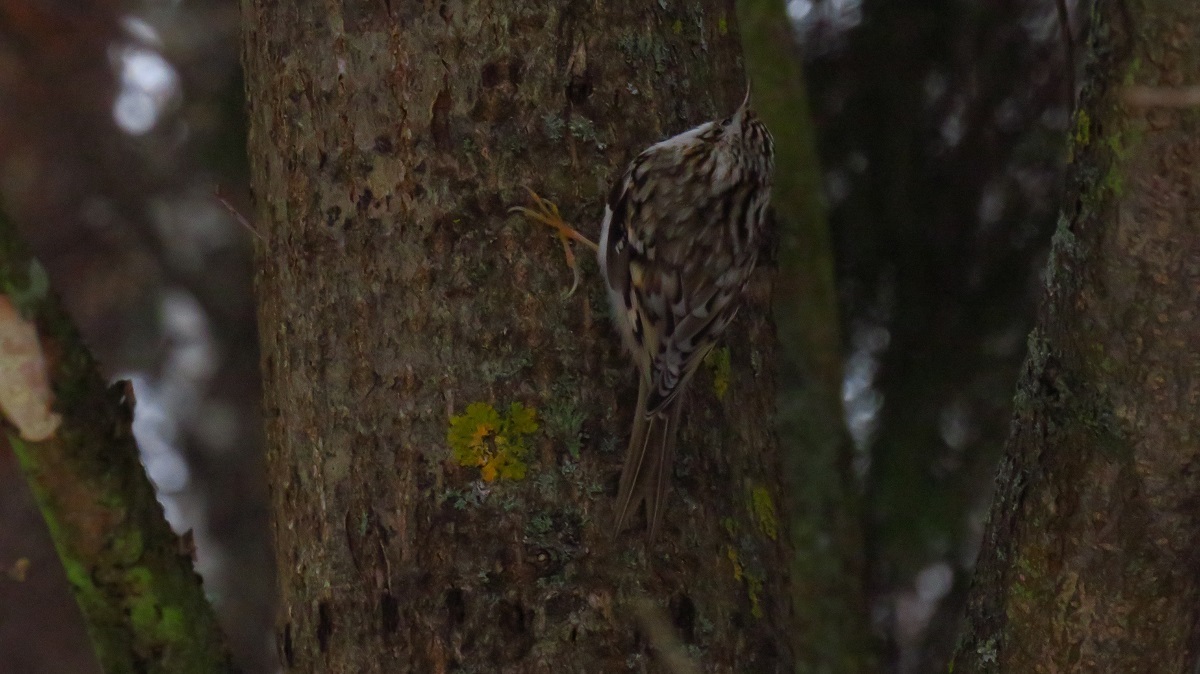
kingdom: Animalia
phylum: Chordata
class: Aves
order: Passeriformes
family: Certhiidae
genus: Certhia
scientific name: Certhia familiaris
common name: Eurasian treecreeper
